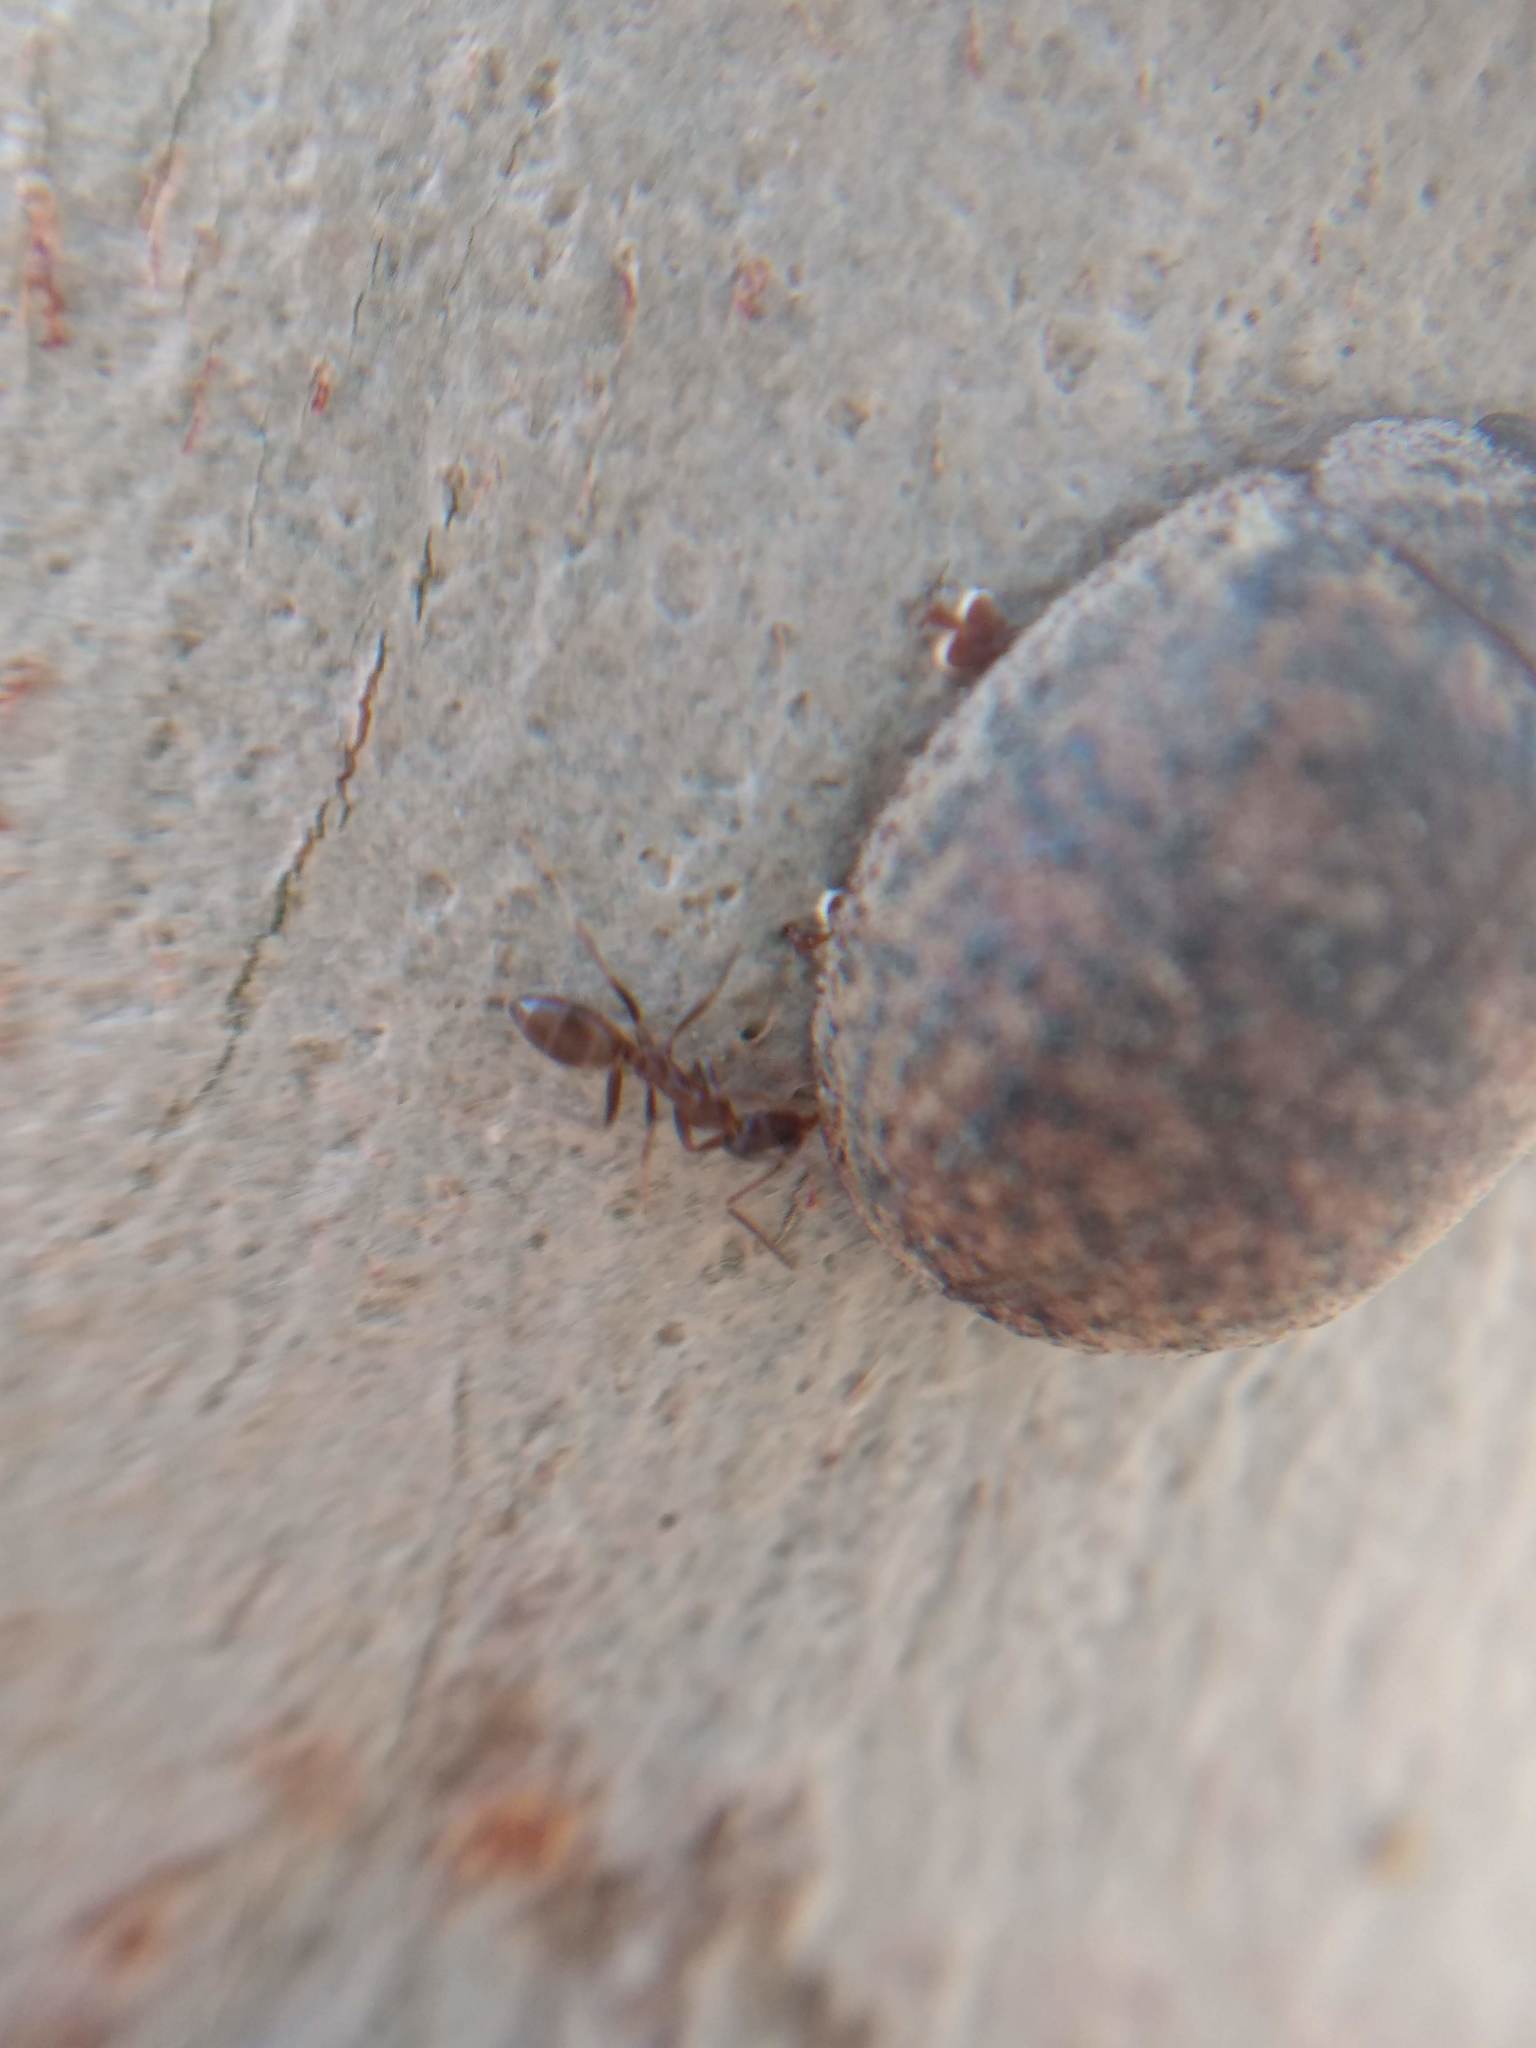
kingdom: Animalia
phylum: Arthropoda
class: Insecta
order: Hymenoptera
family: Formicidae
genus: Linepithema
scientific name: Linepithema humile
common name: Argentine ant
